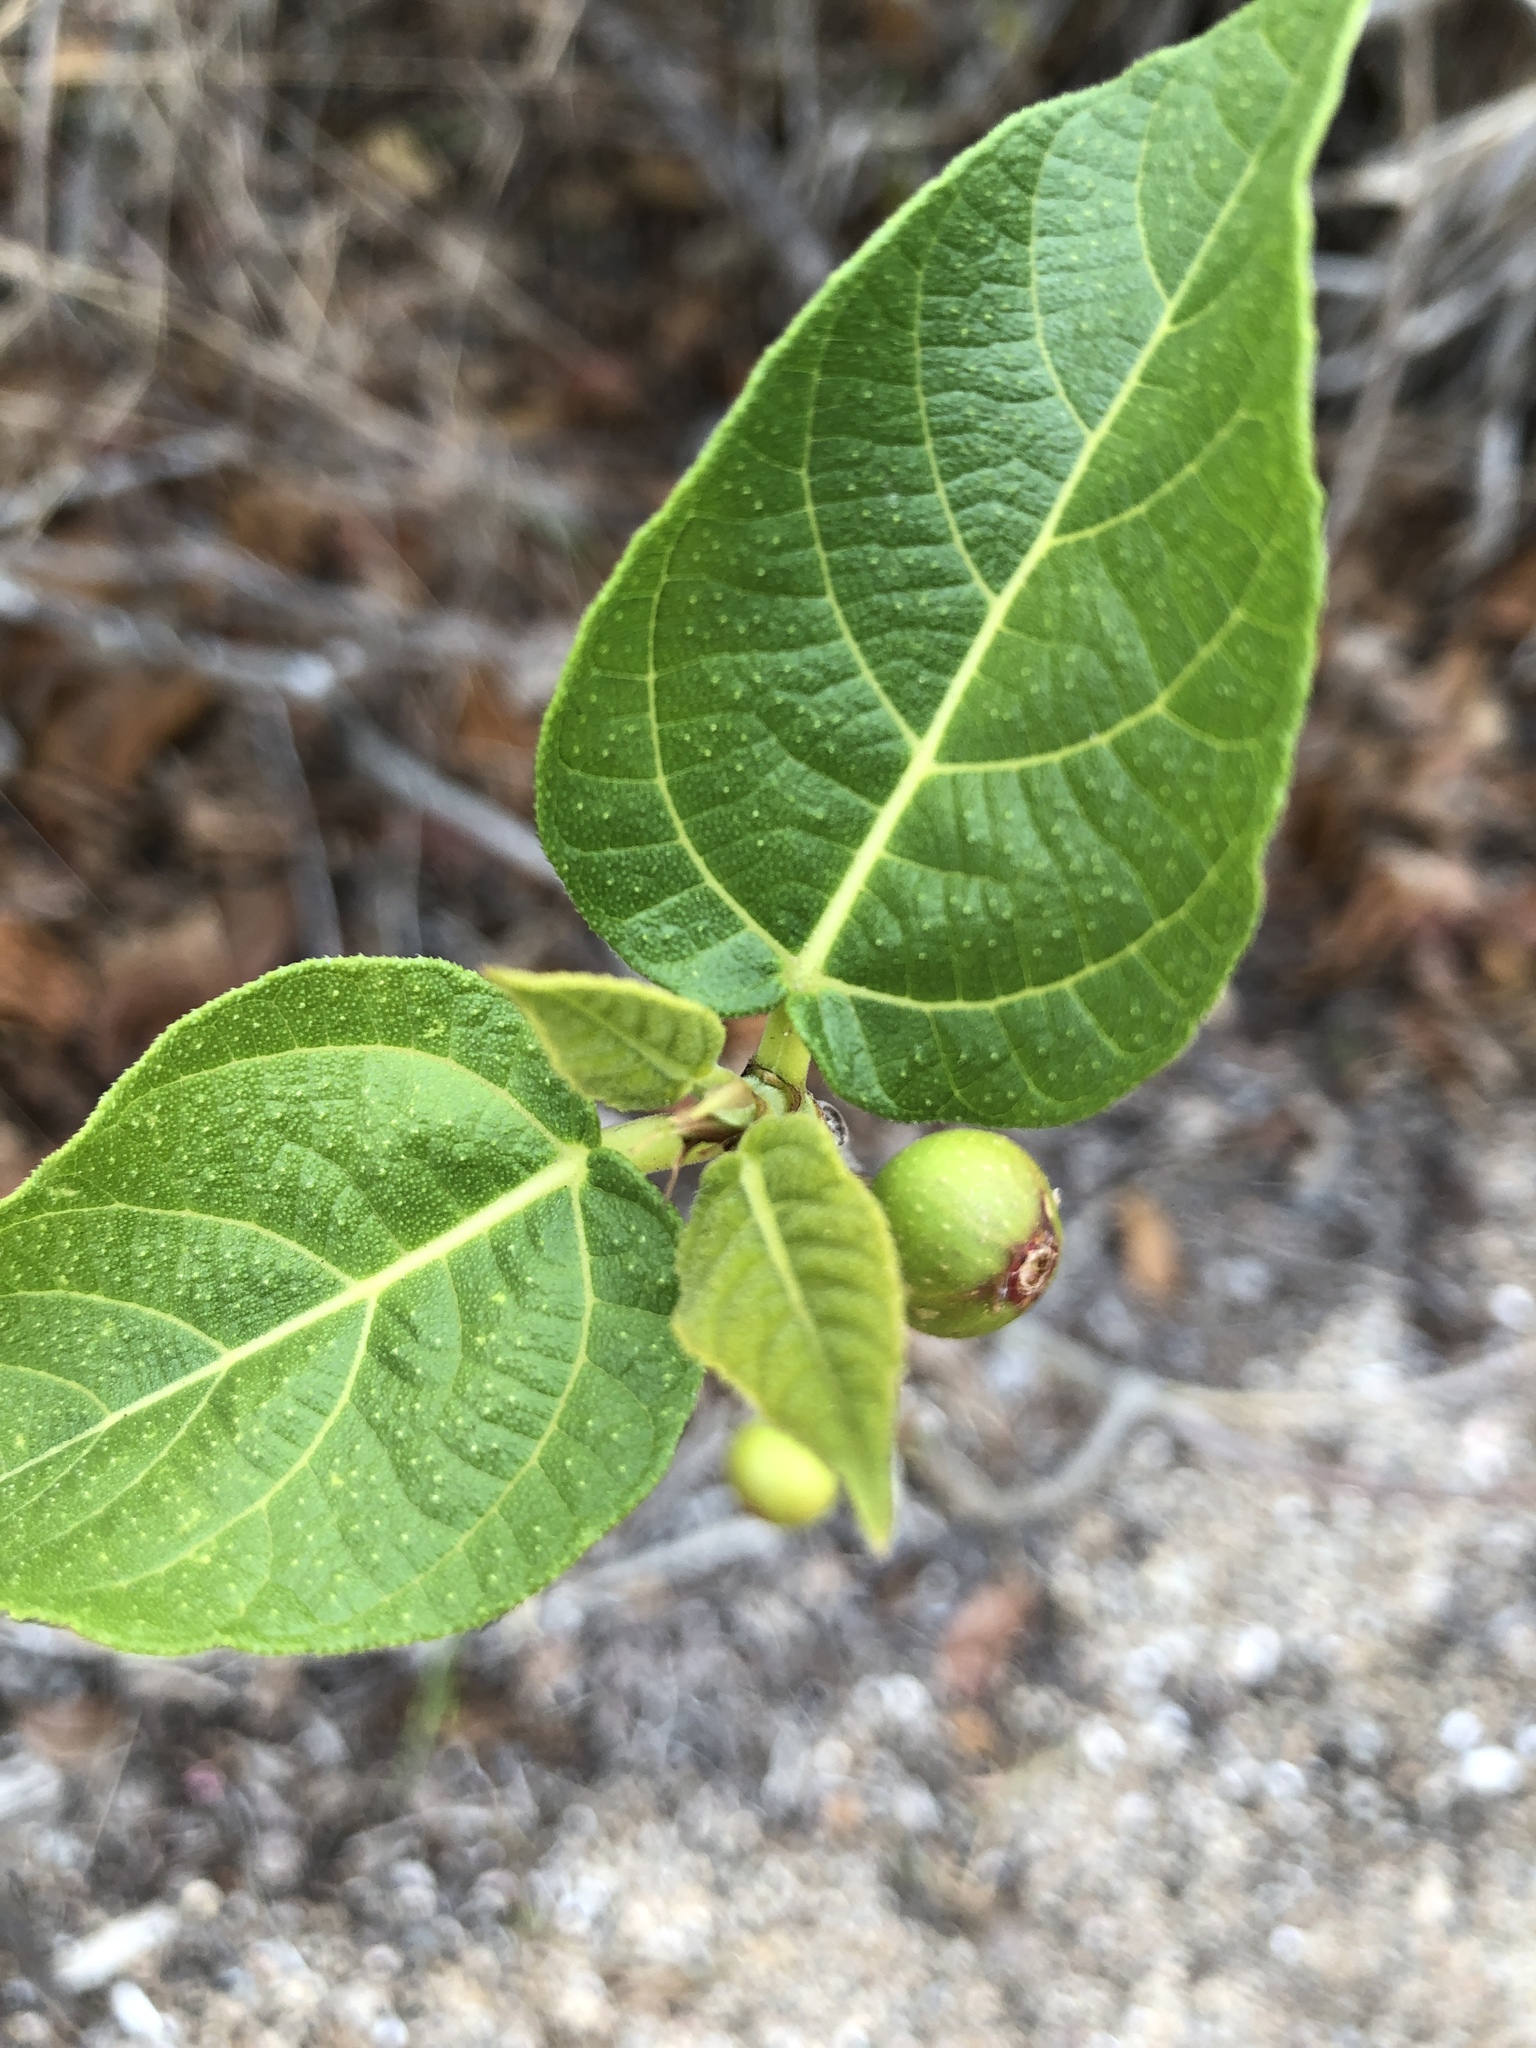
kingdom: Plantae
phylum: Tracheophyta
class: Magnoliopsida
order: Rosales
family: Moraceae
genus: Ficus
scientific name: Ficus opposita
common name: Figwood
